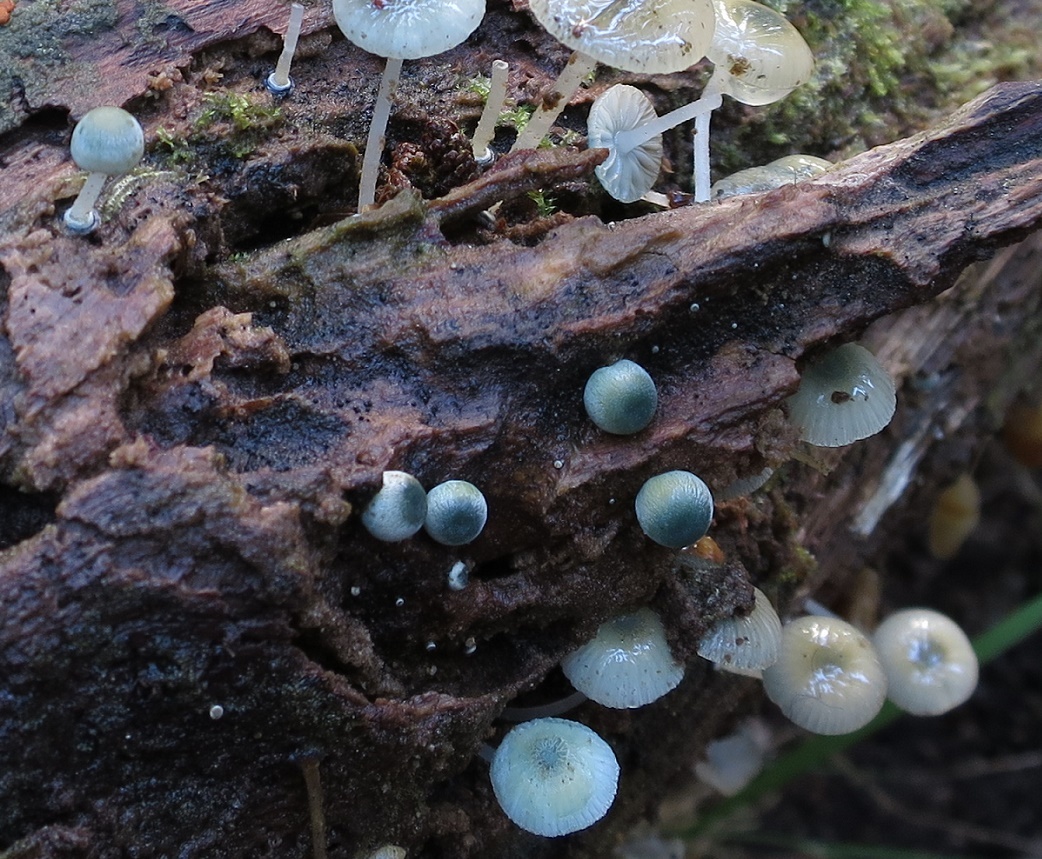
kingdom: Fungi
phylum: Basidiomycota
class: Agaricomycetes
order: Agaricales
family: Mycenaceae
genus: Mycena
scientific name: Mycena interrupta
